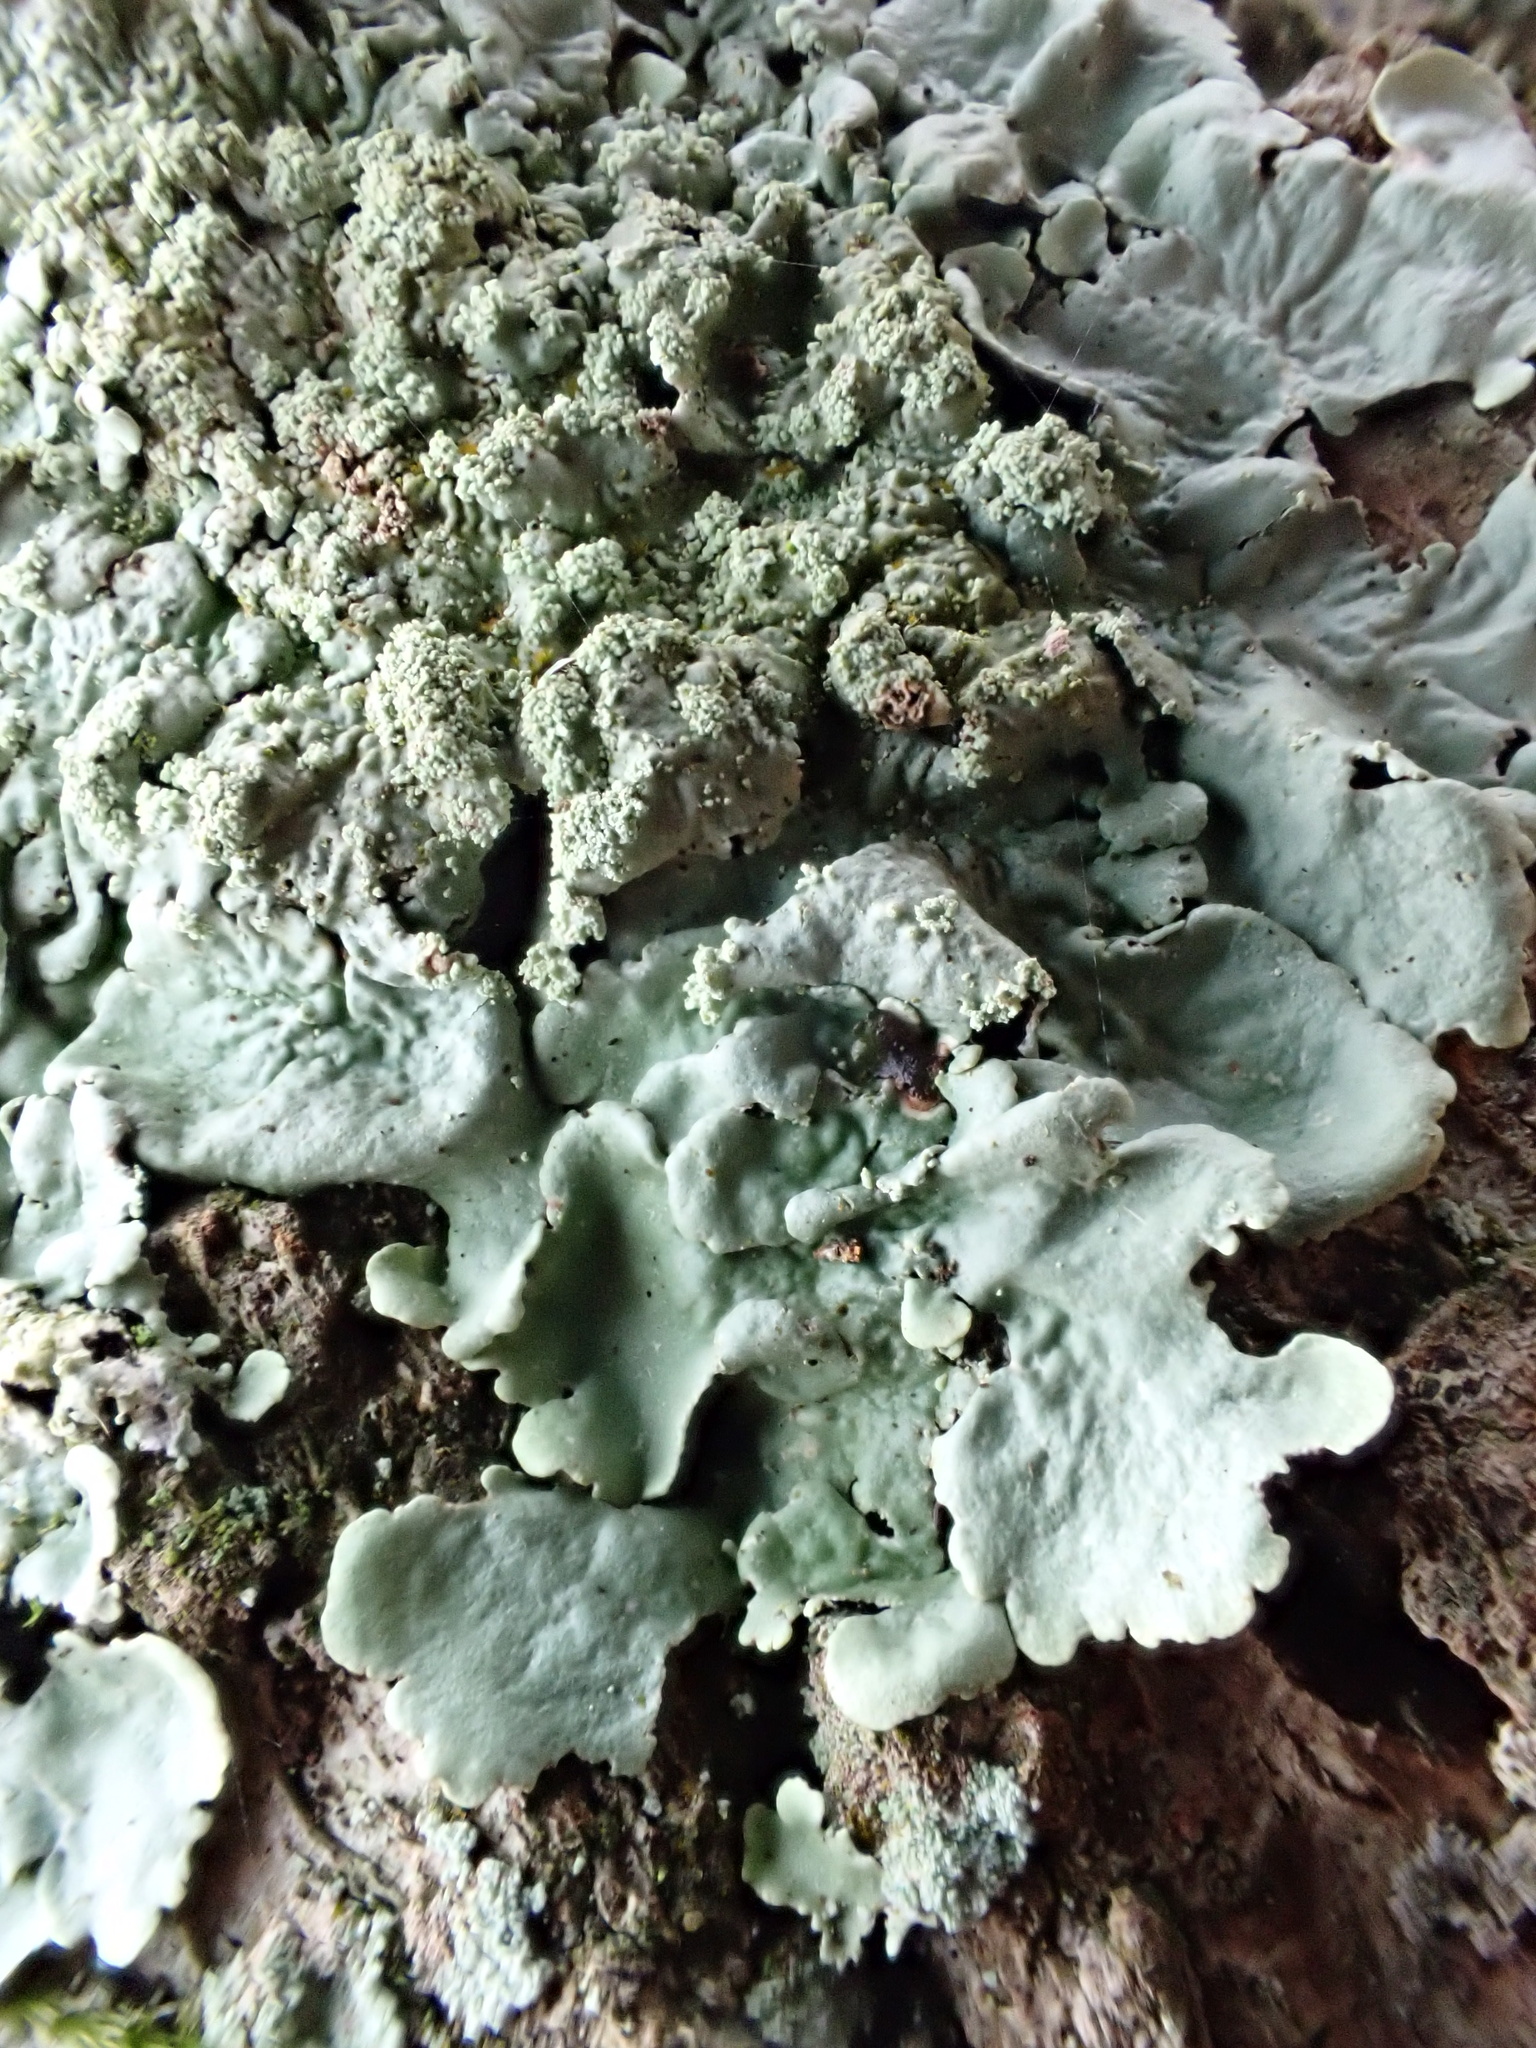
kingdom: Fungi
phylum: Ascomycota
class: Lecanoromycetes
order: Lecanorales
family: Parmeliaceae
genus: Flavoparmelia
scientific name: Flavoparmelia caperata
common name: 40-mile per hour lichen
